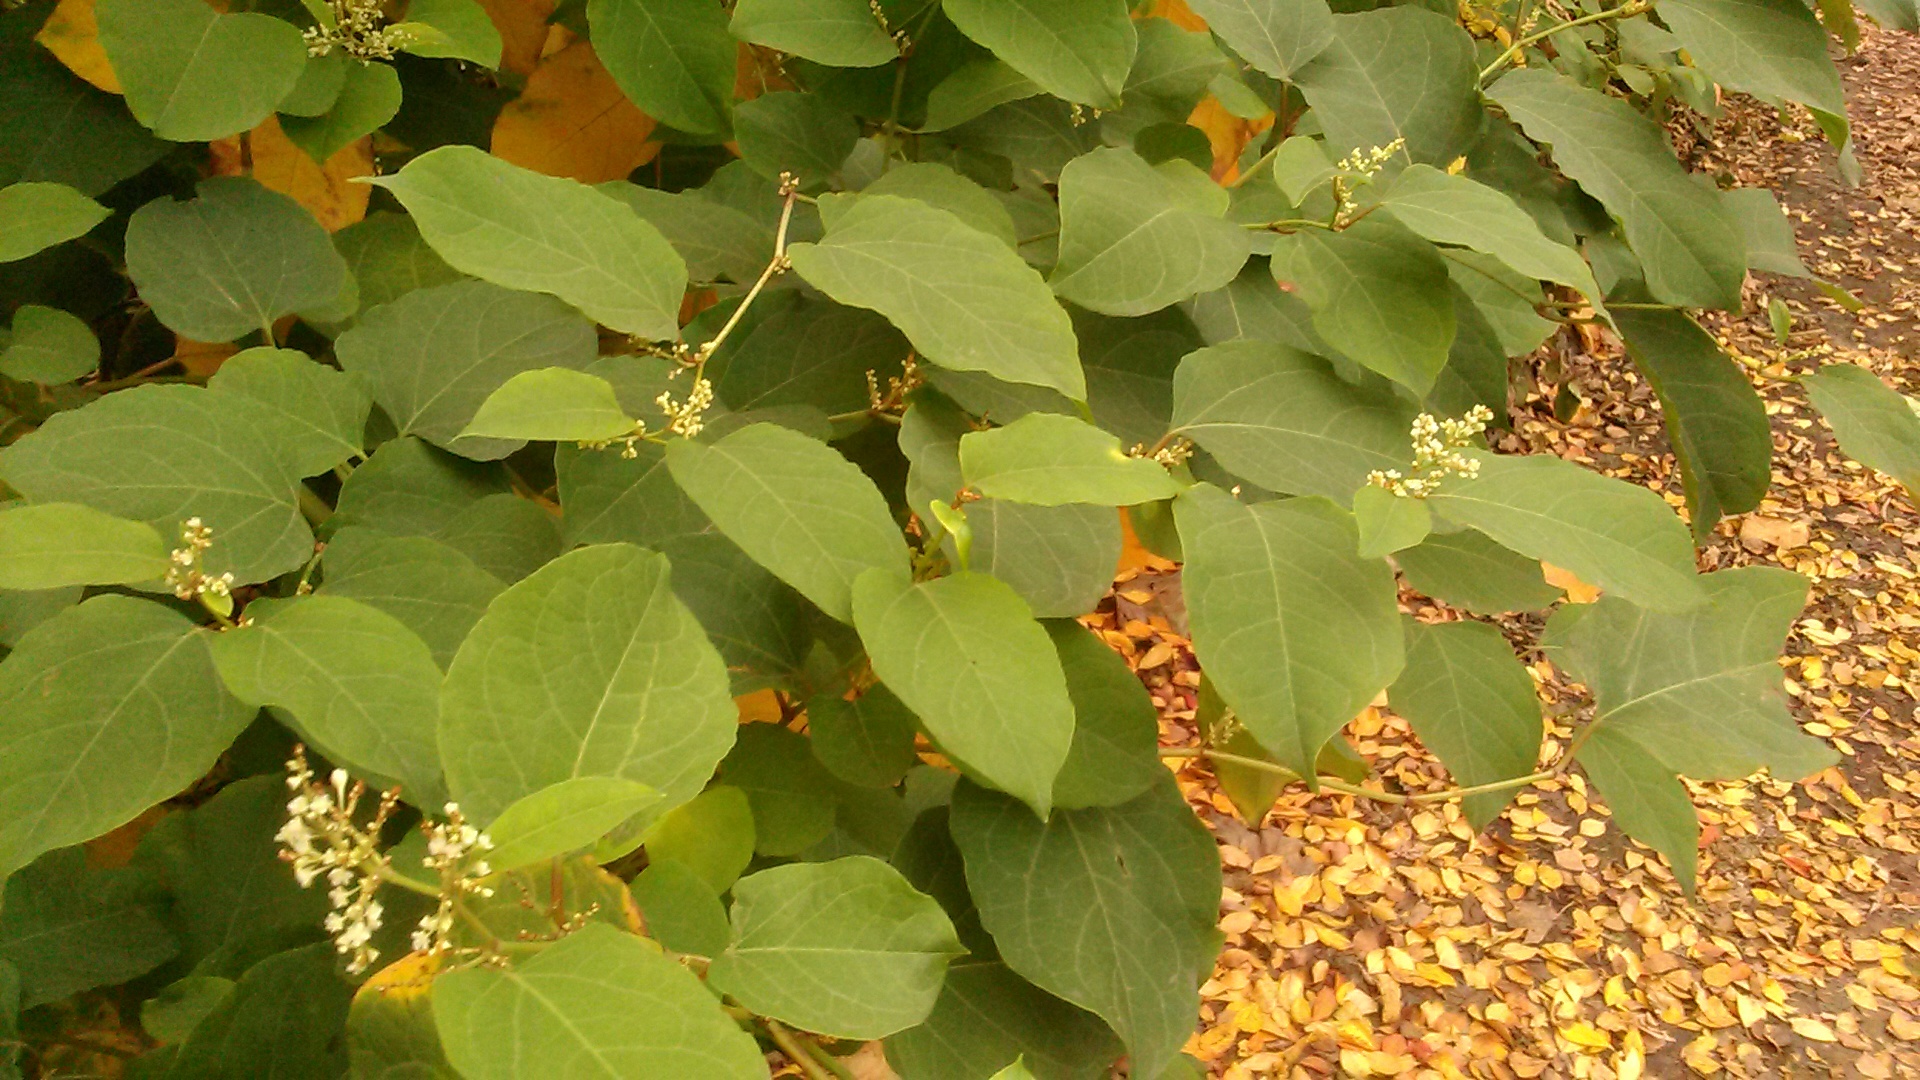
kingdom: Plantae
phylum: Tracheophyta
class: Magnoliopsida
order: Caryophyllales
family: Polygonaceae
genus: Reynoutria
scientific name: Reynoutria bohemica
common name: Bohemian knotweed
